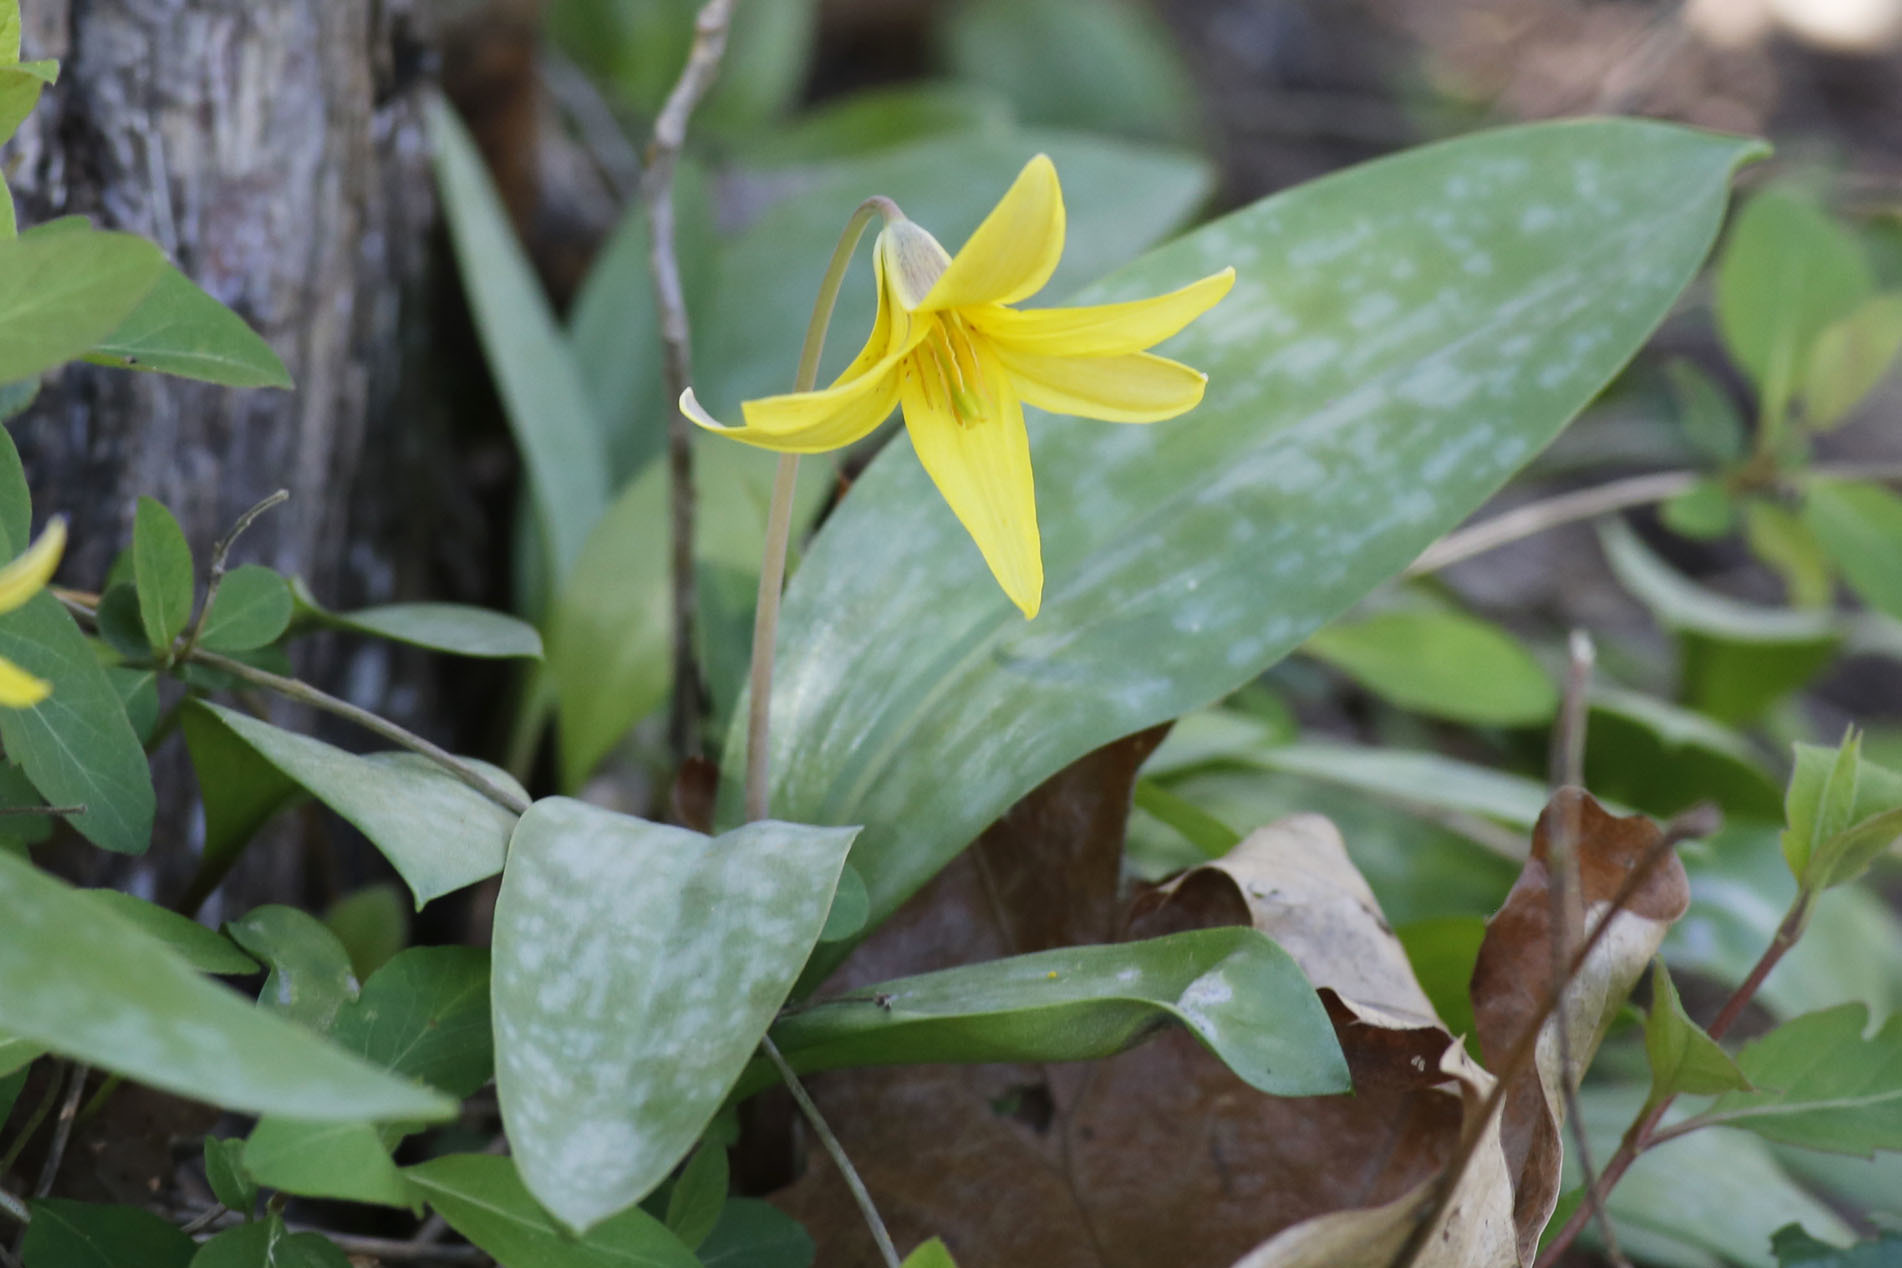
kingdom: Plantae
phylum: Tracheophyta
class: Liliopsida
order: Liliales
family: Liliaceae
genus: Erythronium
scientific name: Erythronium americanum
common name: Yellow adder's-tongue
